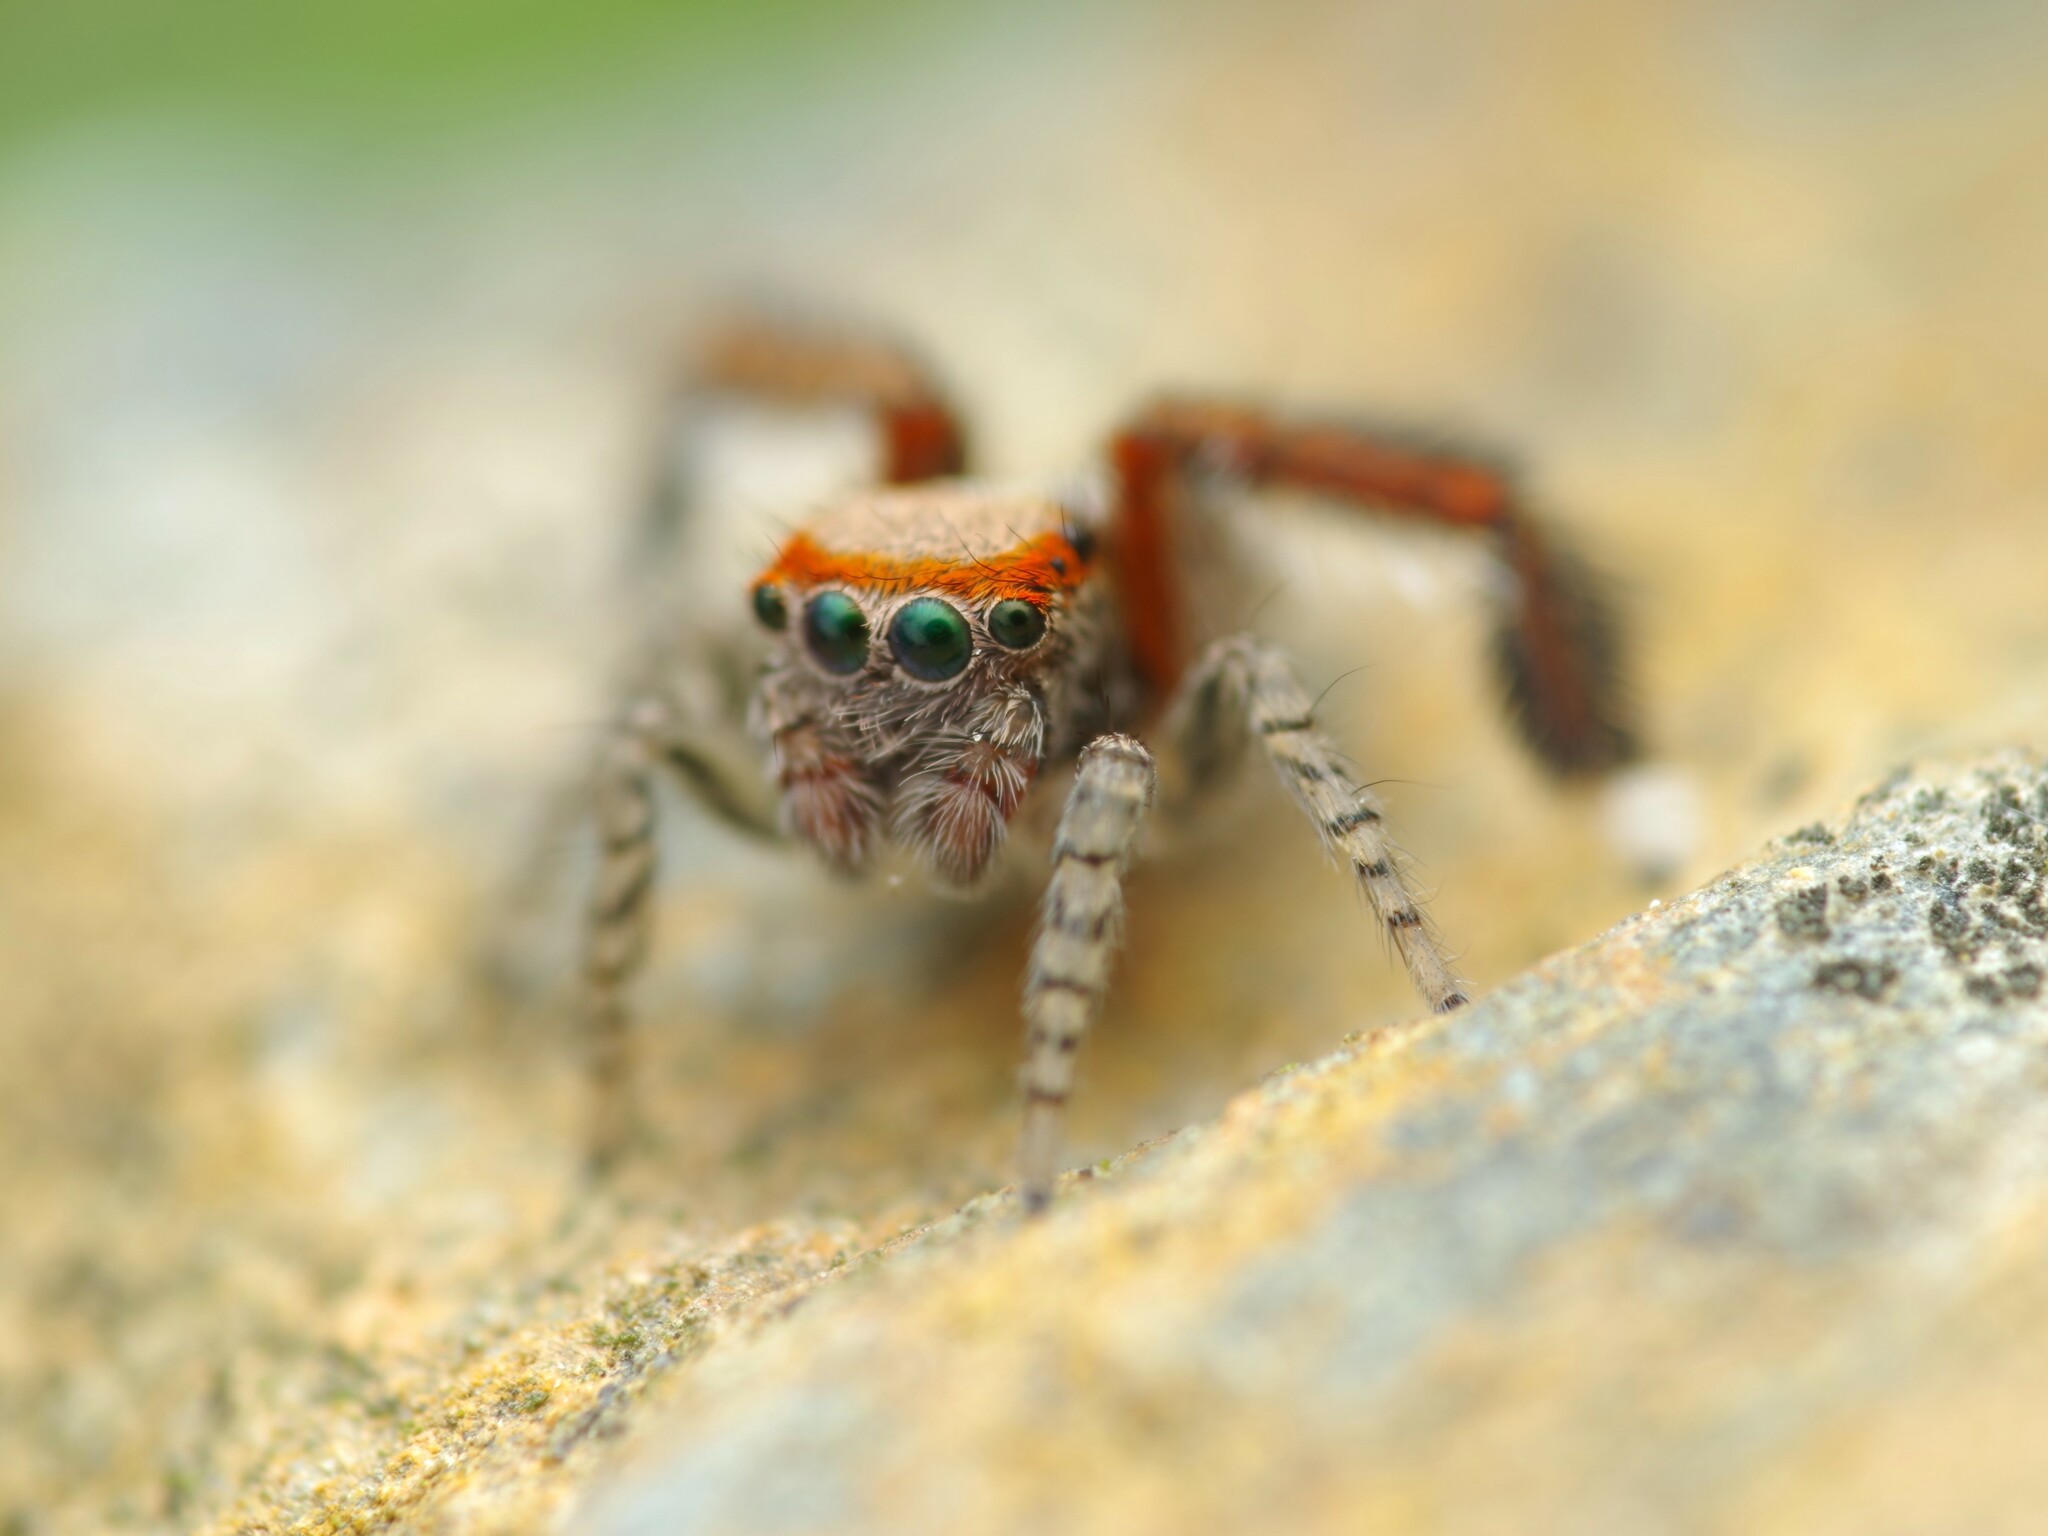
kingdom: Animalia
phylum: Arthropoda
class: Arachnida
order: Araneae
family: Salticidae
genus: Saitis
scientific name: Saitis barbipes
